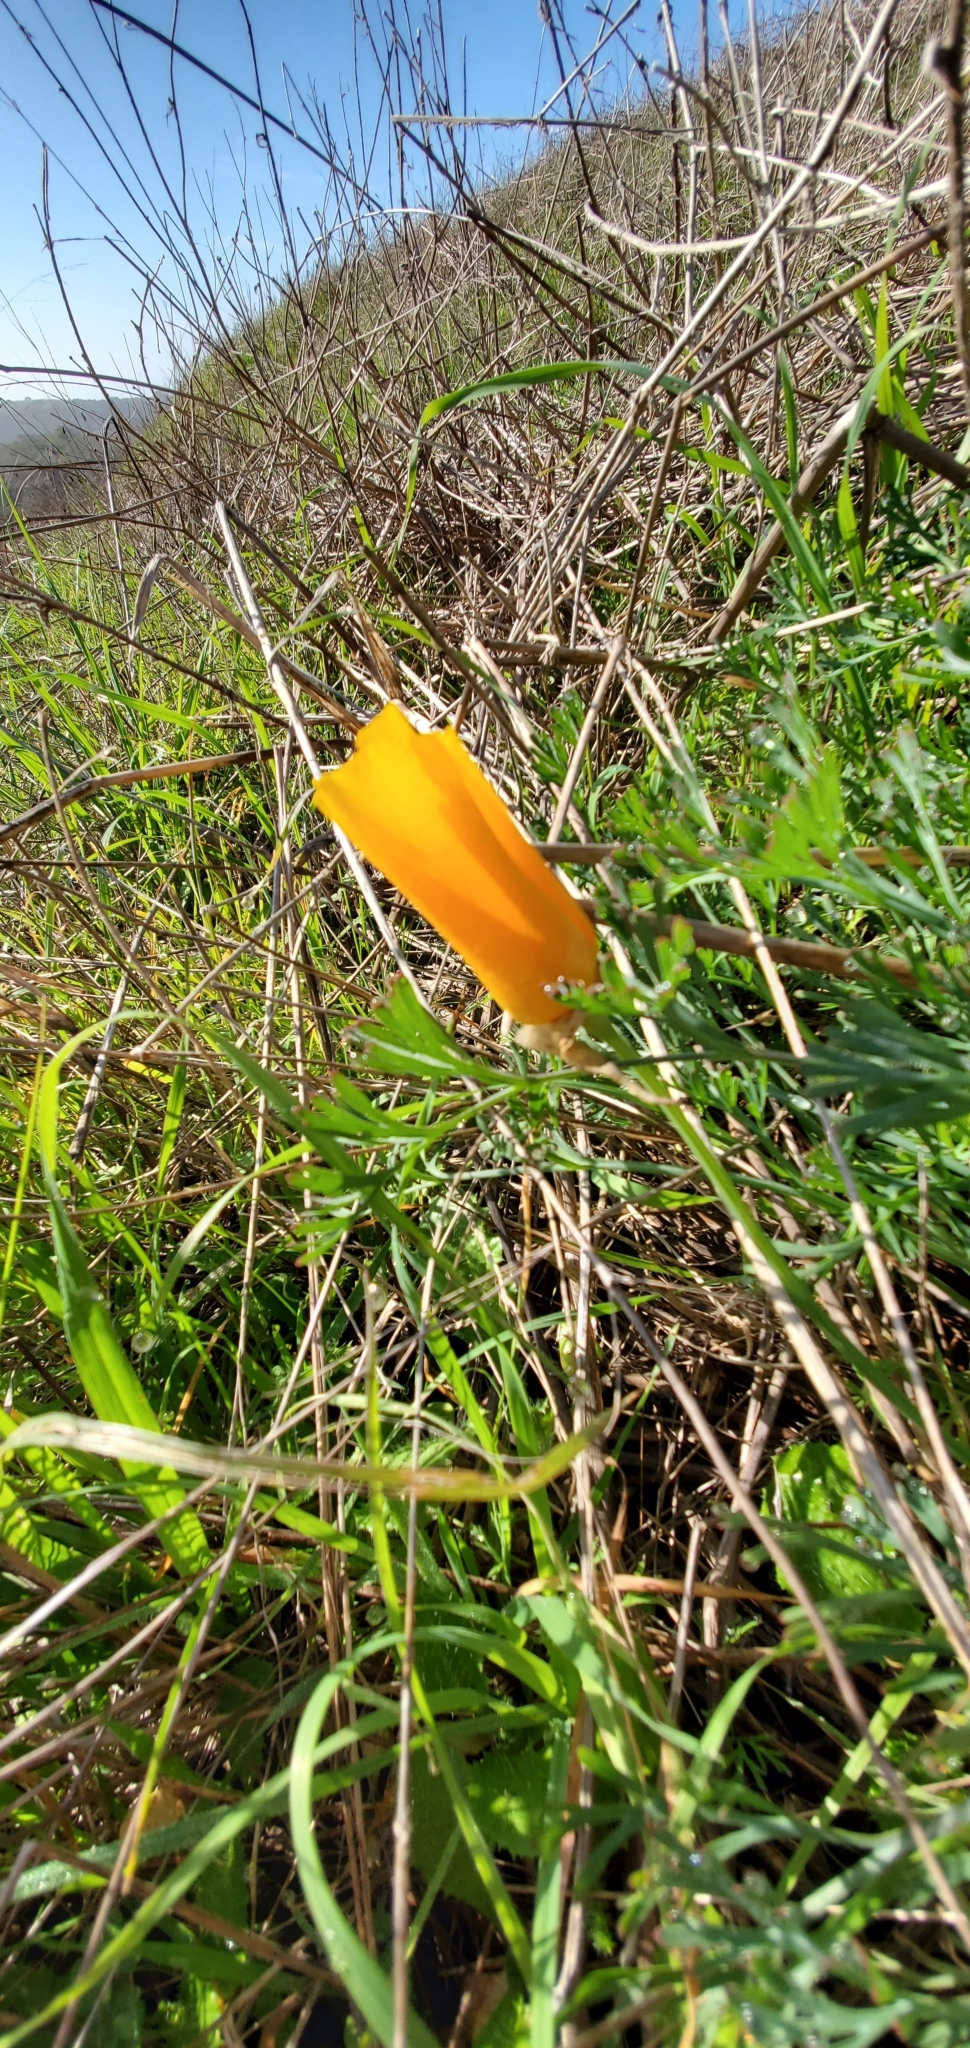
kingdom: Plantae
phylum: Tracheophyta
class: Magnoliopsida
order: Ranunculales
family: Papaveraceae
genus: Eschscholzia
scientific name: Eschscholzia californica
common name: California poppy
